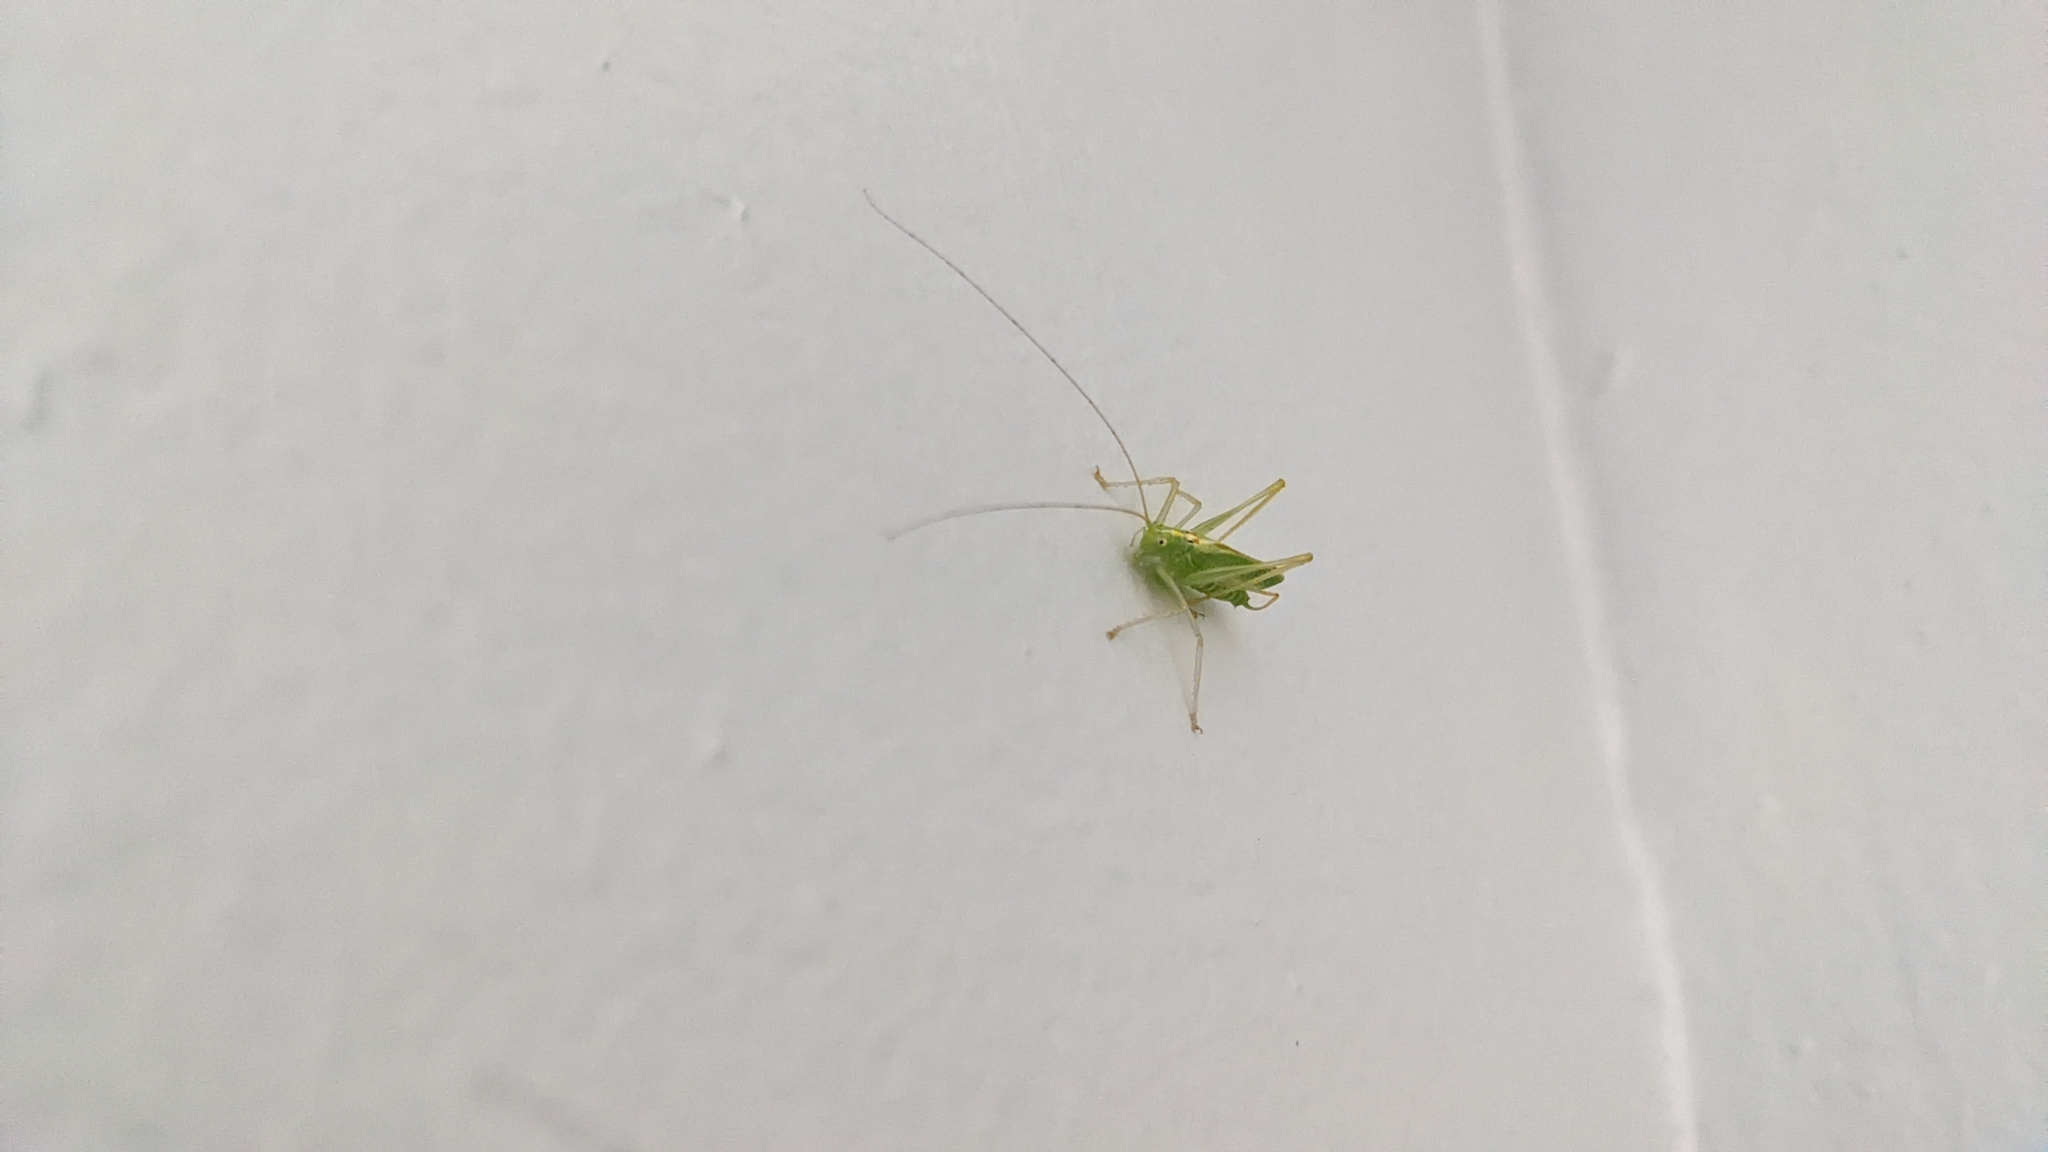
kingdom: Animalia
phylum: Arthropoda
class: Insecta
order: Orthoptera
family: Tettigoniidae
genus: Meconema
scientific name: Meconema thalassinum
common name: Oak bush-cricket
